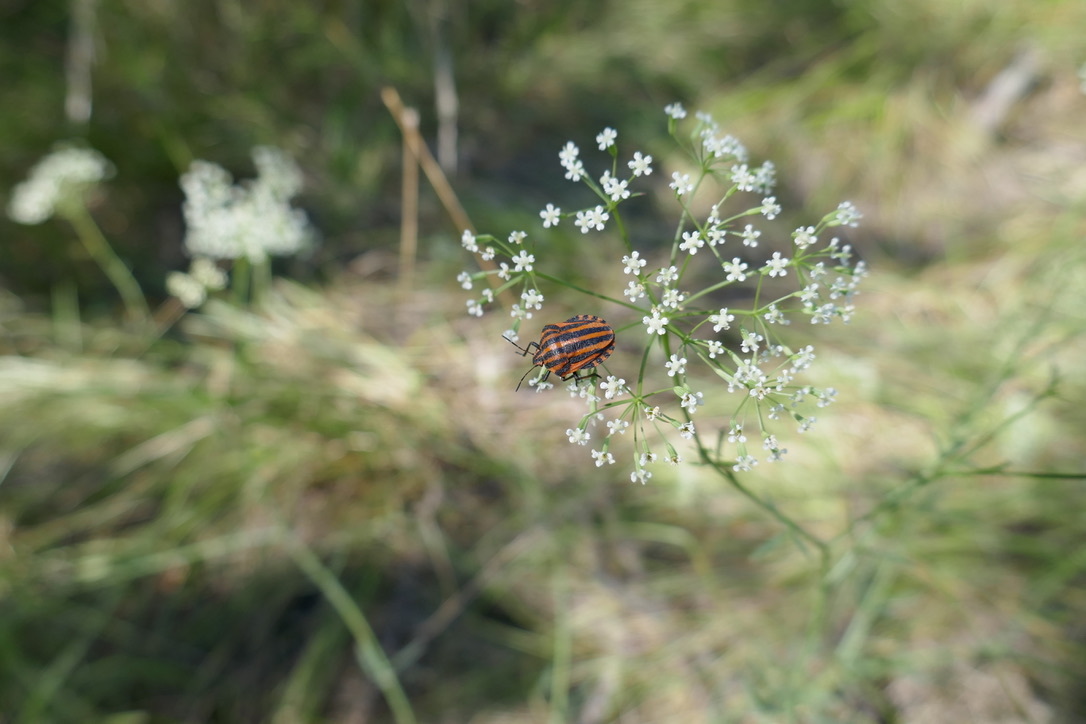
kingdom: Animalia
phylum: Arthropoda
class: Insecta
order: Hemiptera
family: Pentatomidae
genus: Graphosoma
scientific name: Graphosoma italicum
